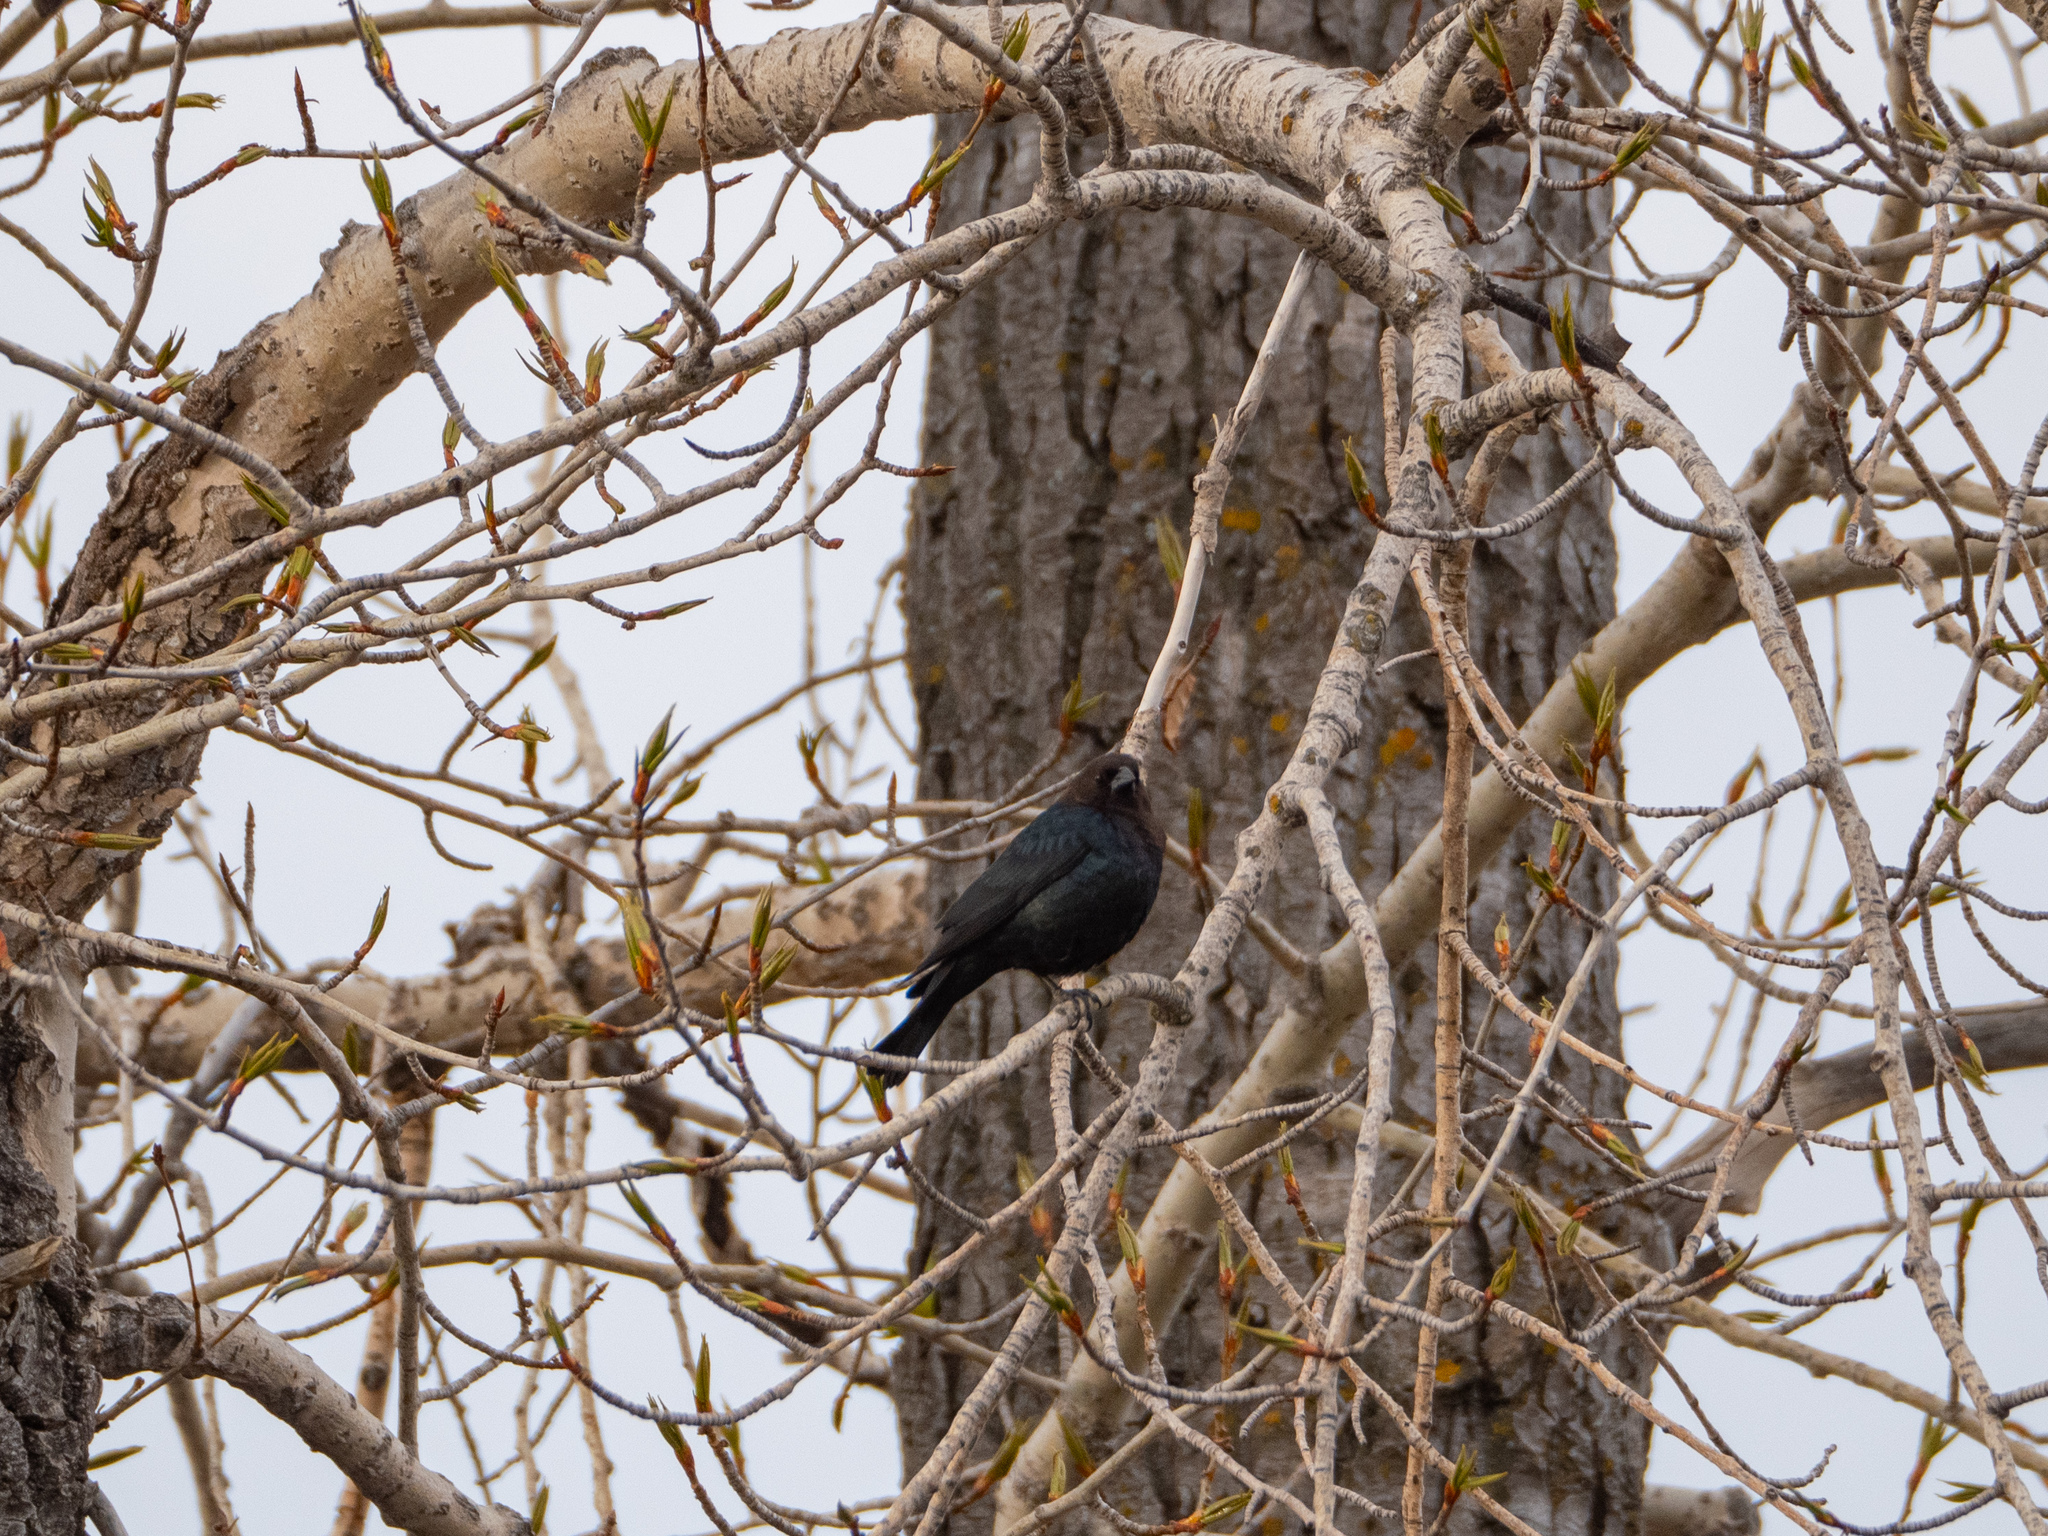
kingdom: Animalia
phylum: Chordata
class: Aves
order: Passeriformes
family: Icteridae
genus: Molothrus
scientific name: Molothrus ater
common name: Brown-headed cowbird
